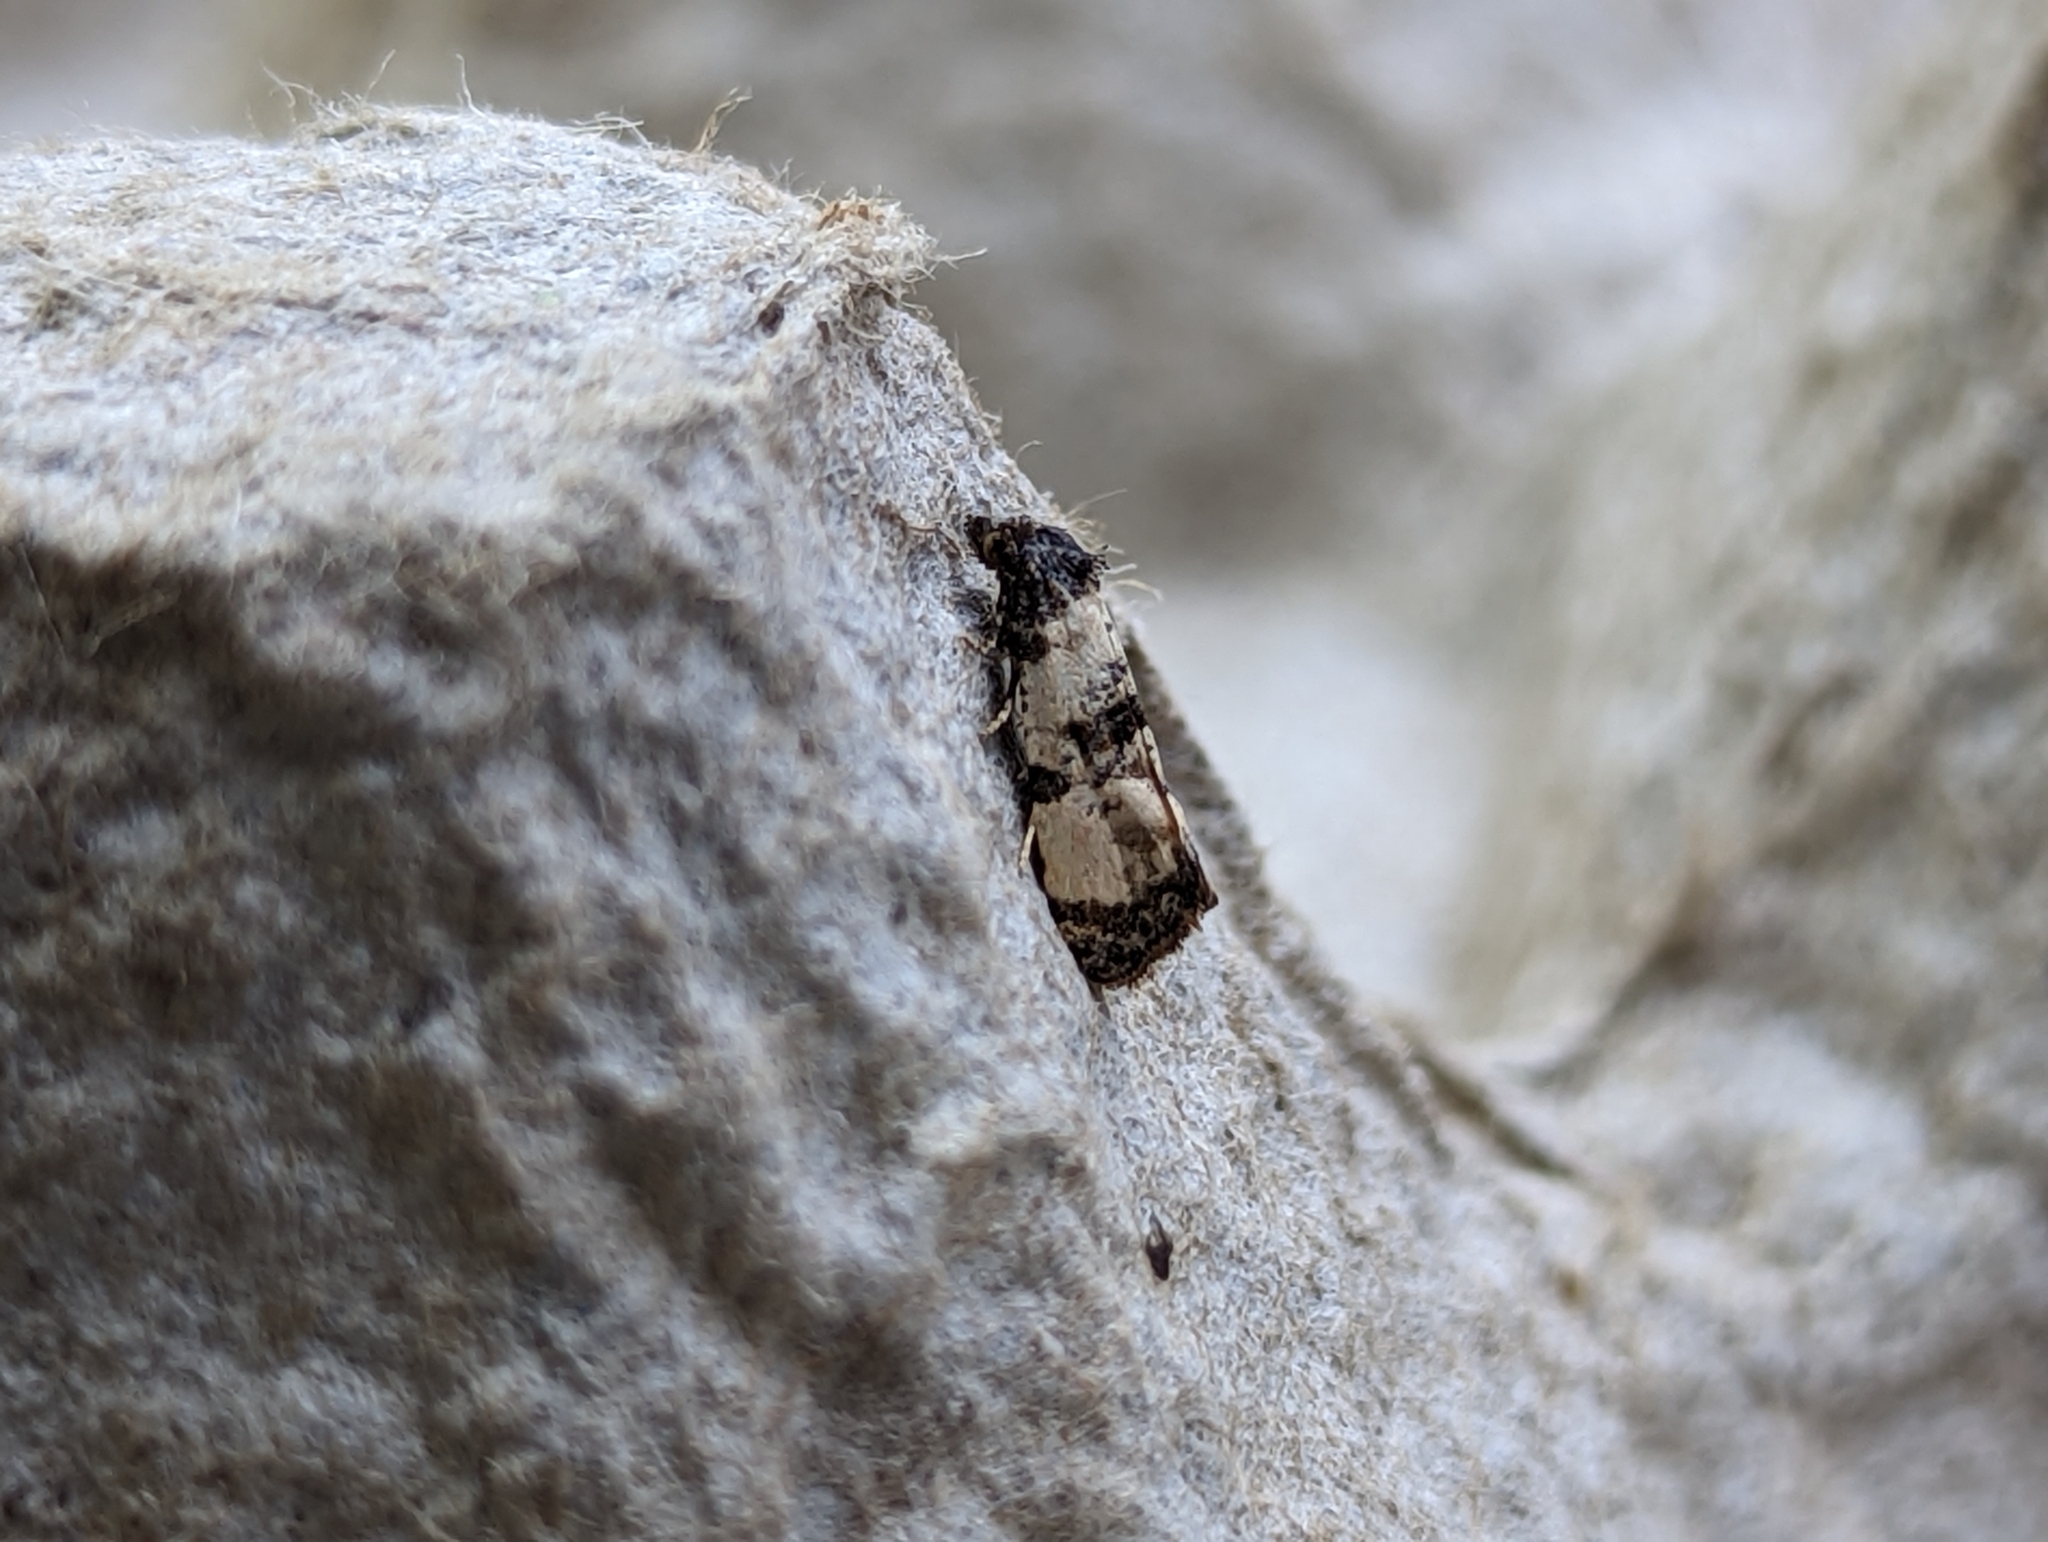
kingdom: Animalia
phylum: Arthropoda
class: Insecta
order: Lepidoptera
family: Tortricidae
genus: Cochylis
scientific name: Cochylis atricapitana
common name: Tortricid moth
